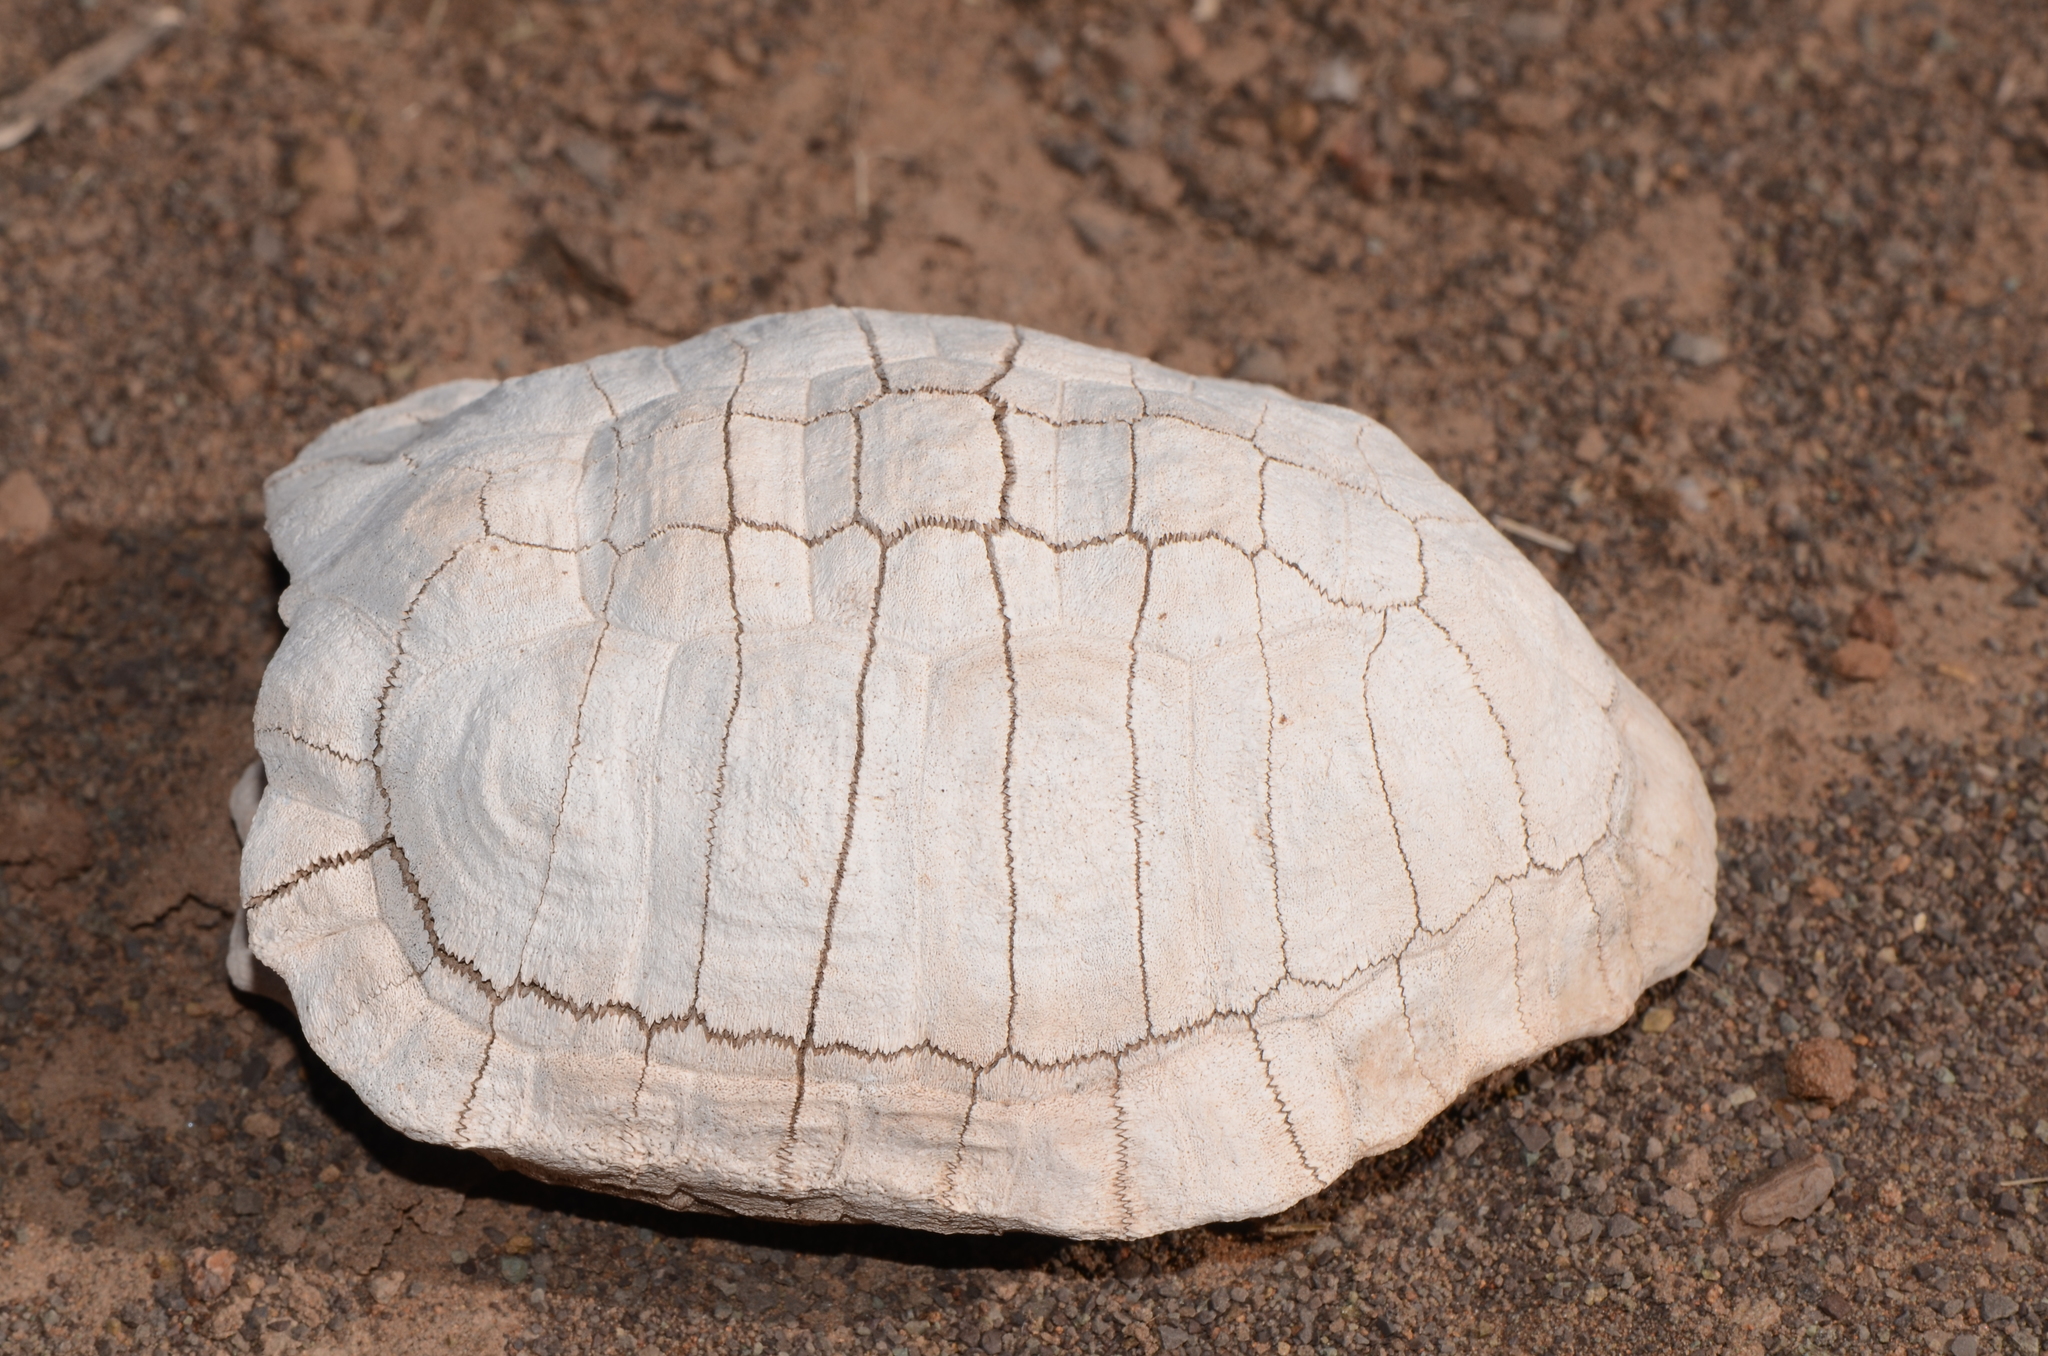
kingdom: Animalia
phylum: Chordata
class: Testudines
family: Testudinidae
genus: Psammobates
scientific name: Psammobates tentorius
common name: Tent tortoise
